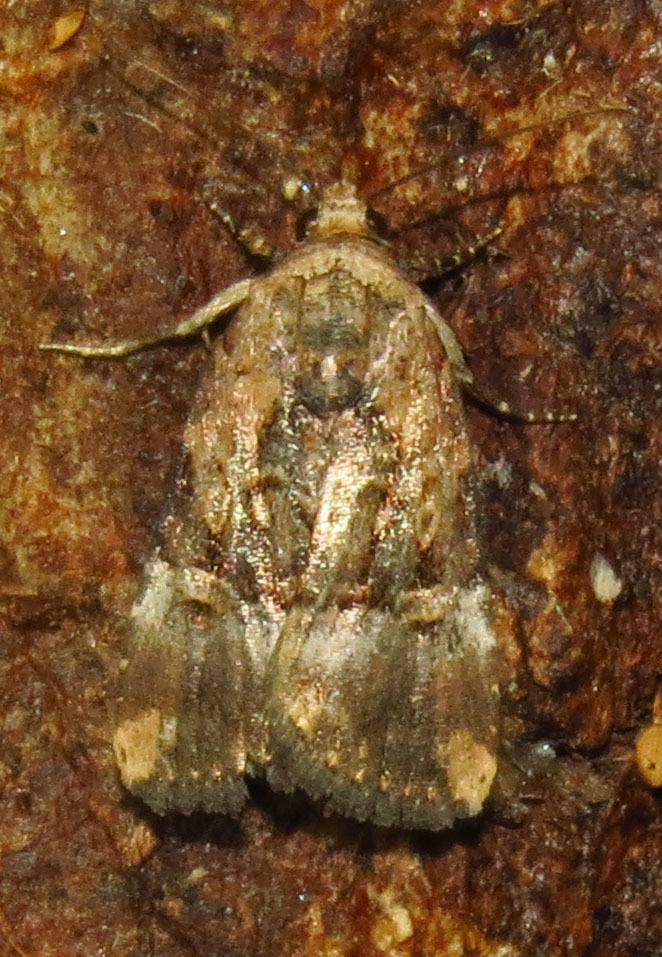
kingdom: Animalia
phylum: Arthropoda
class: Insecta
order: Lepidoptera
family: Noctuidae
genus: Elaphria
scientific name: Elaphria chalcedonia
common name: Chalcedony midget
